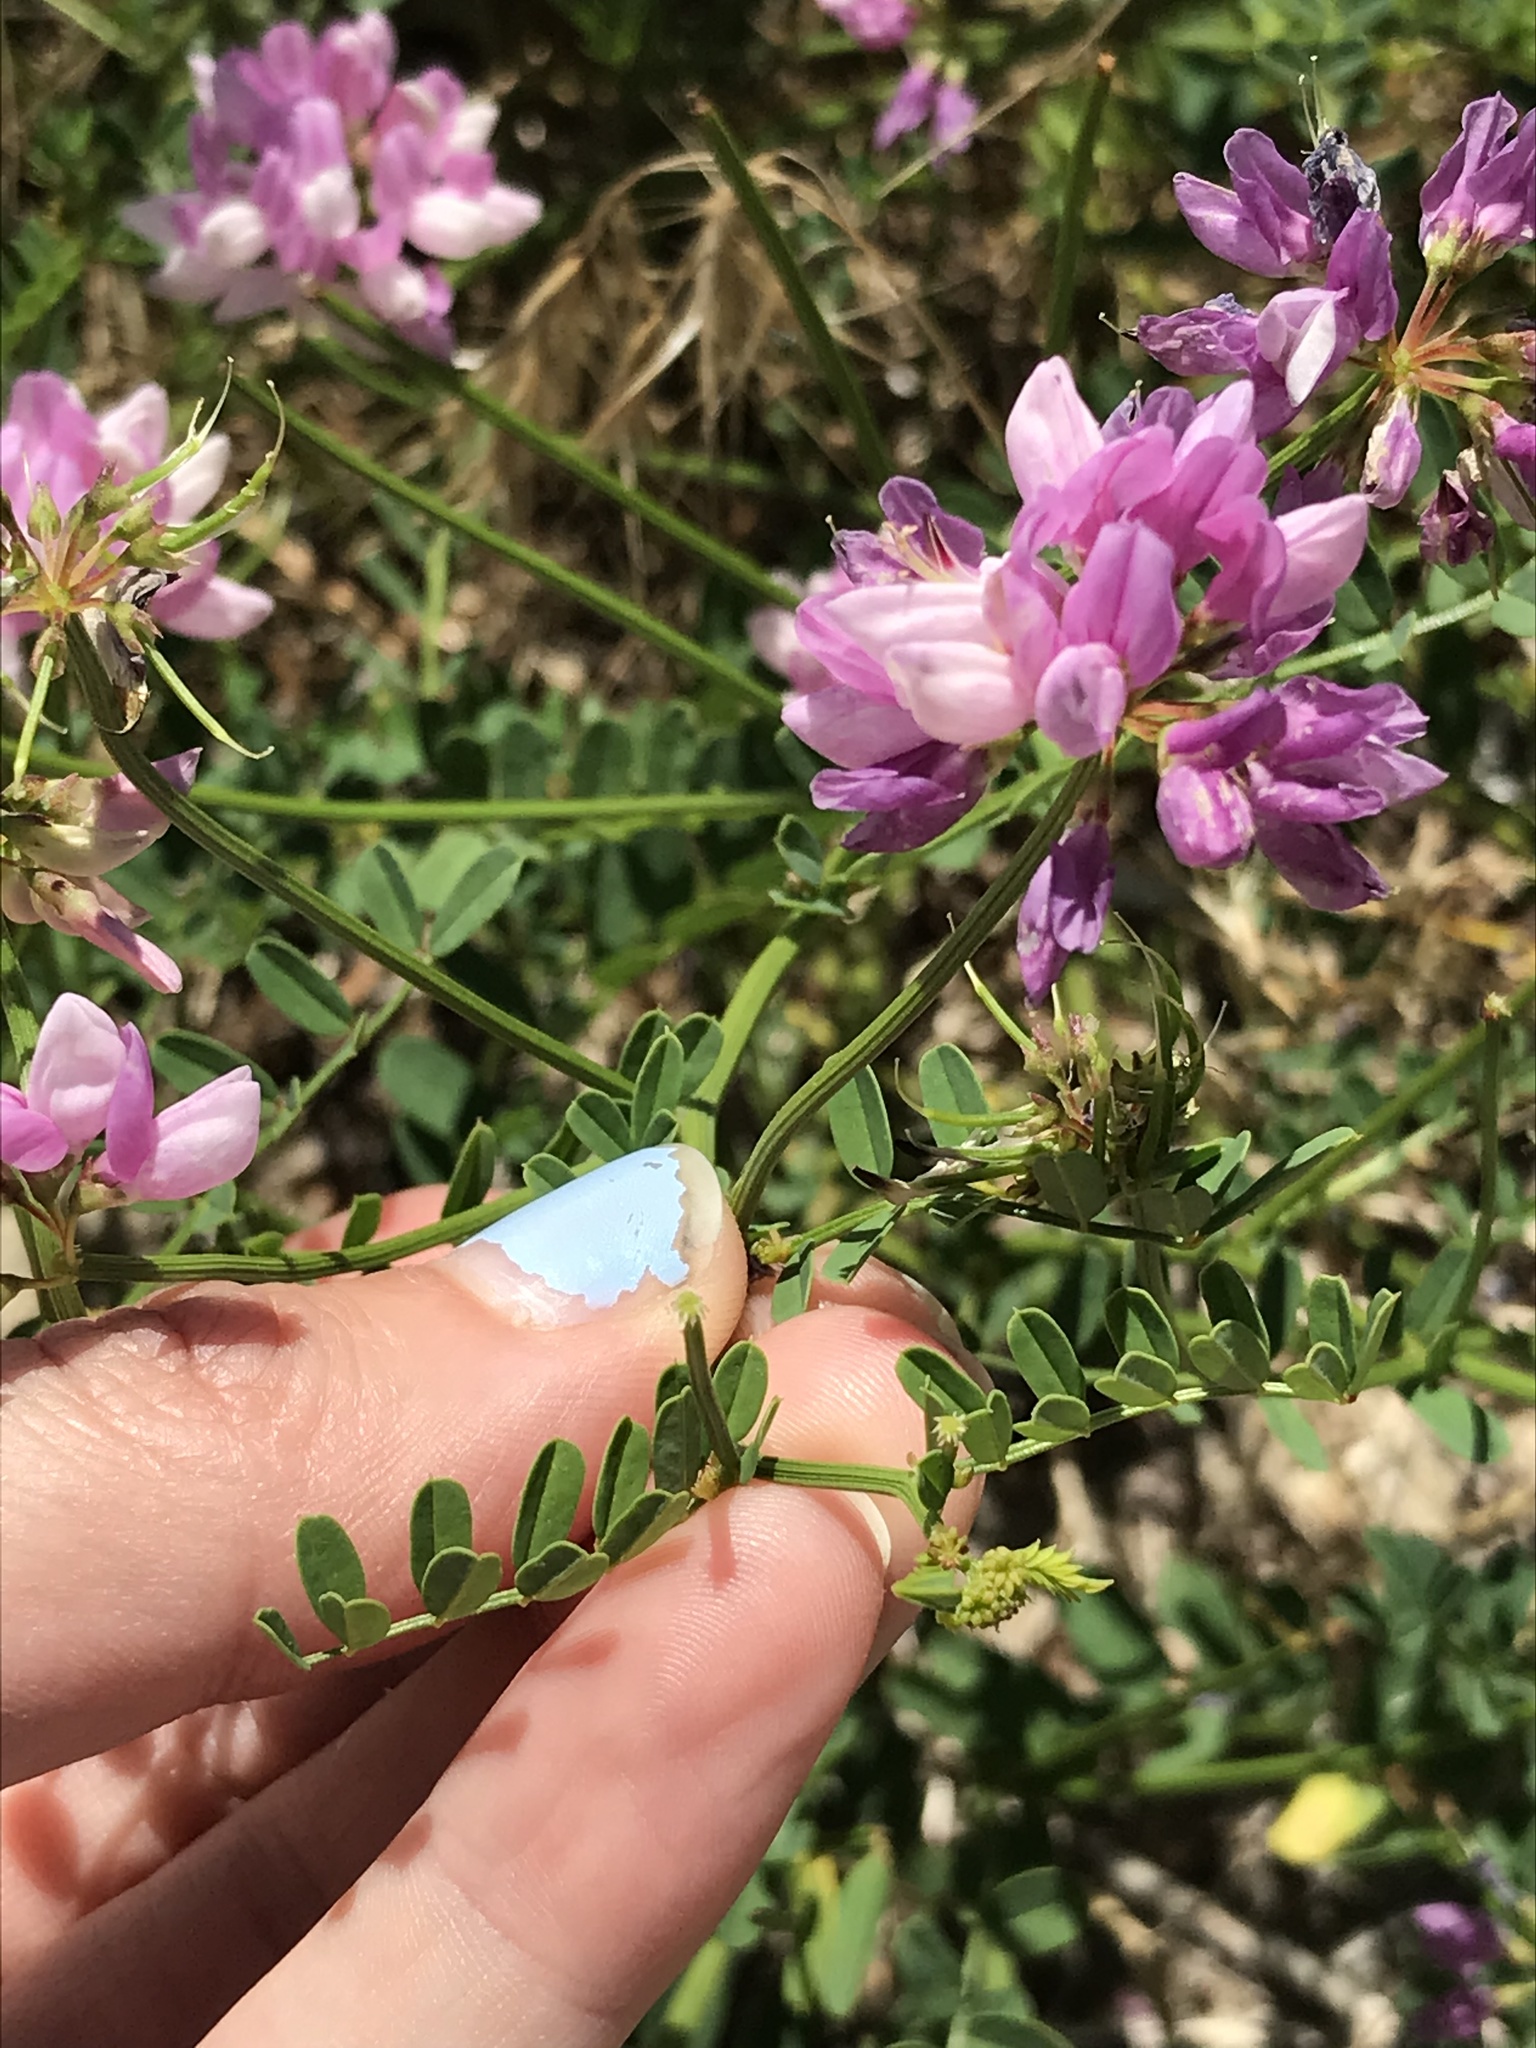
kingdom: Plantae
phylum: Tracheophyta
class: Magnoliopsida
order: Fabales
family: Fabaceae
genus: Coronilla
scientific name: Coronilla varia
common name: Crownvetch
